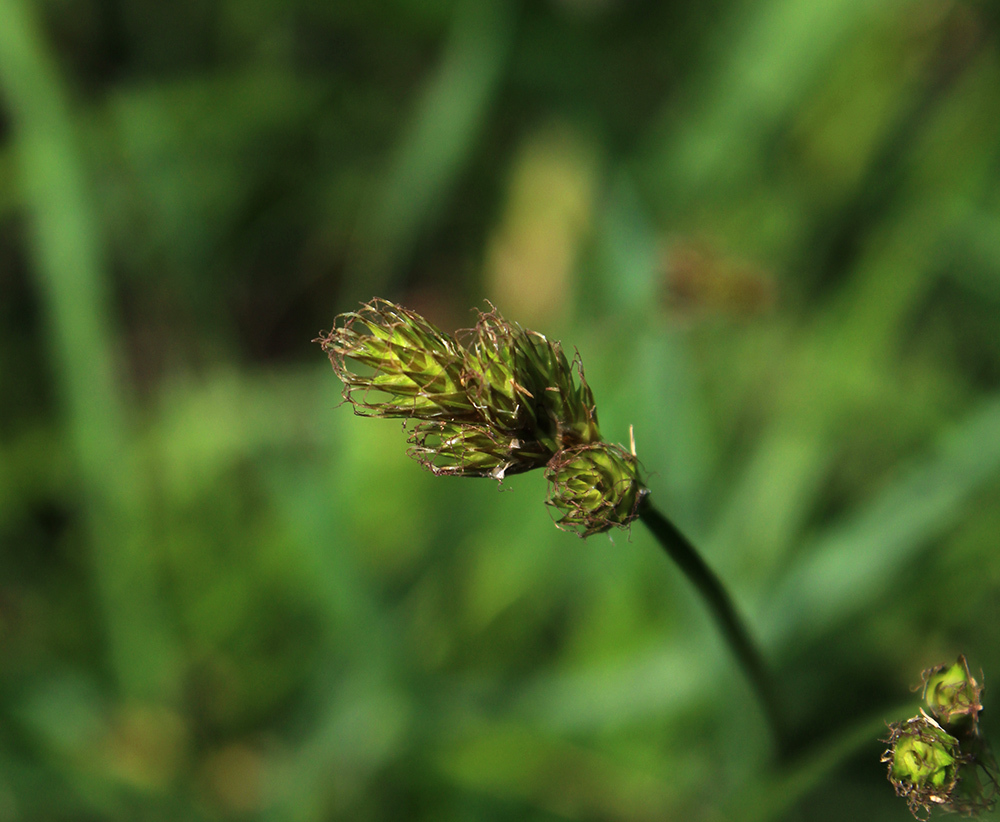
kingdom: Plantae
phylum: Tracheophyta
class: Liliopsida
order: Poales
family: Cyperaceae
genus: Carex
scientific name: Carex leporina
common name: Oval sedge
